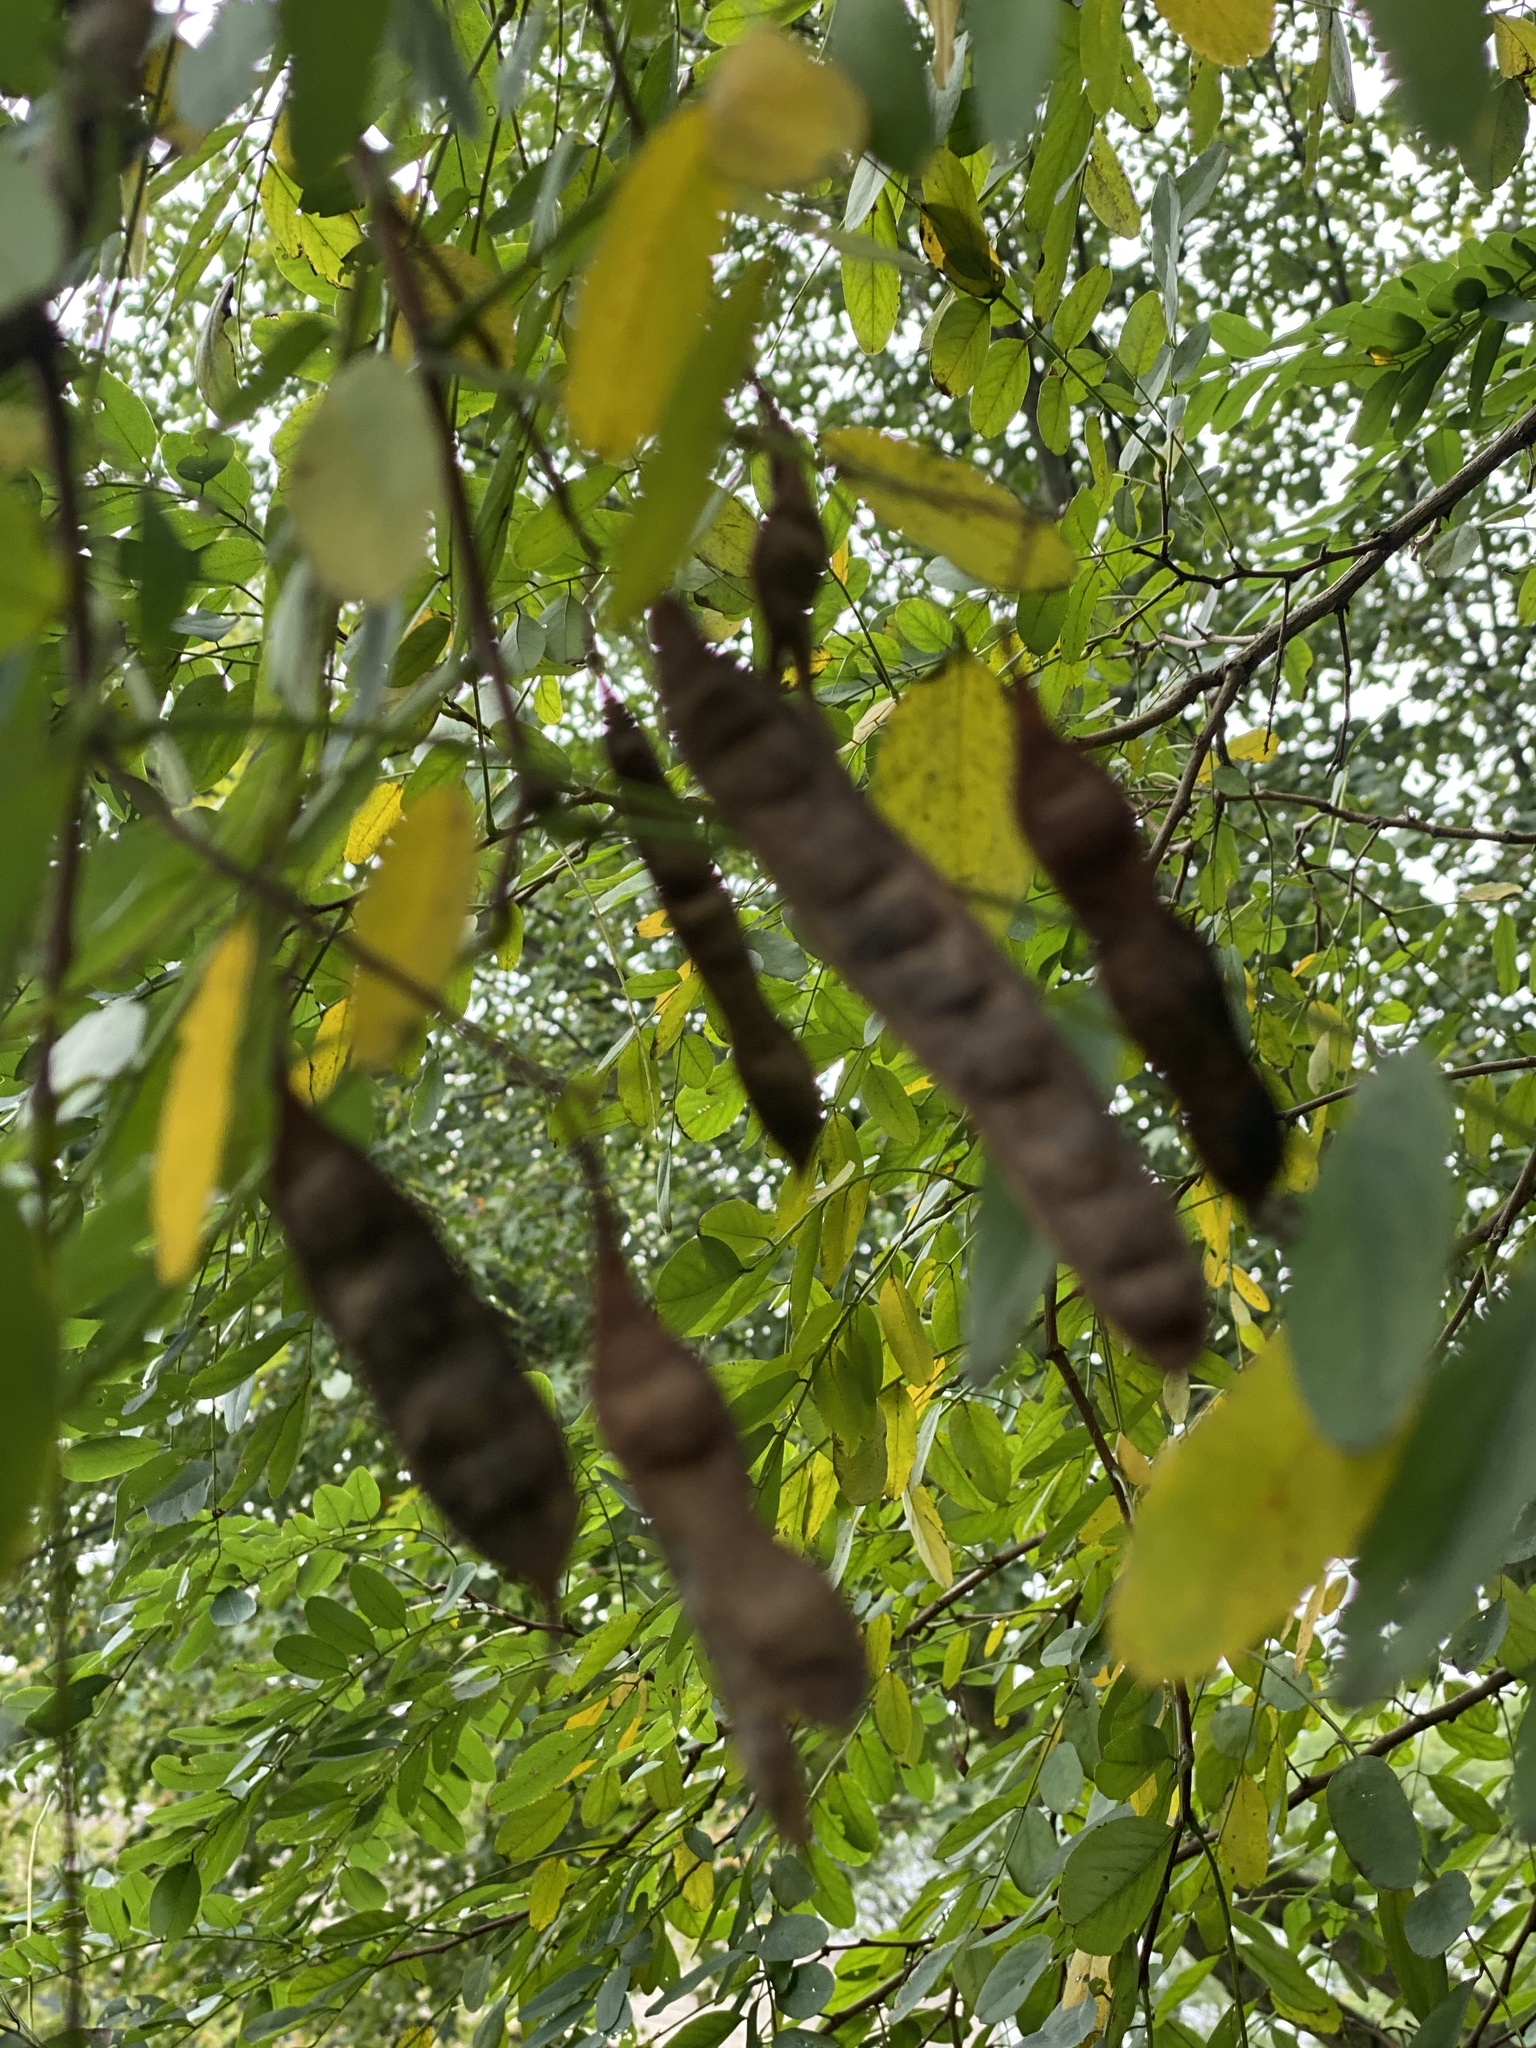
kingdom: Plantae
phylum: Tracheophyta
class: Magnoliopsida
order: Fabales
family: Fabaceae
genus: Robinia
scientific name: Robinia pseudoacacia
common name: Black locust
